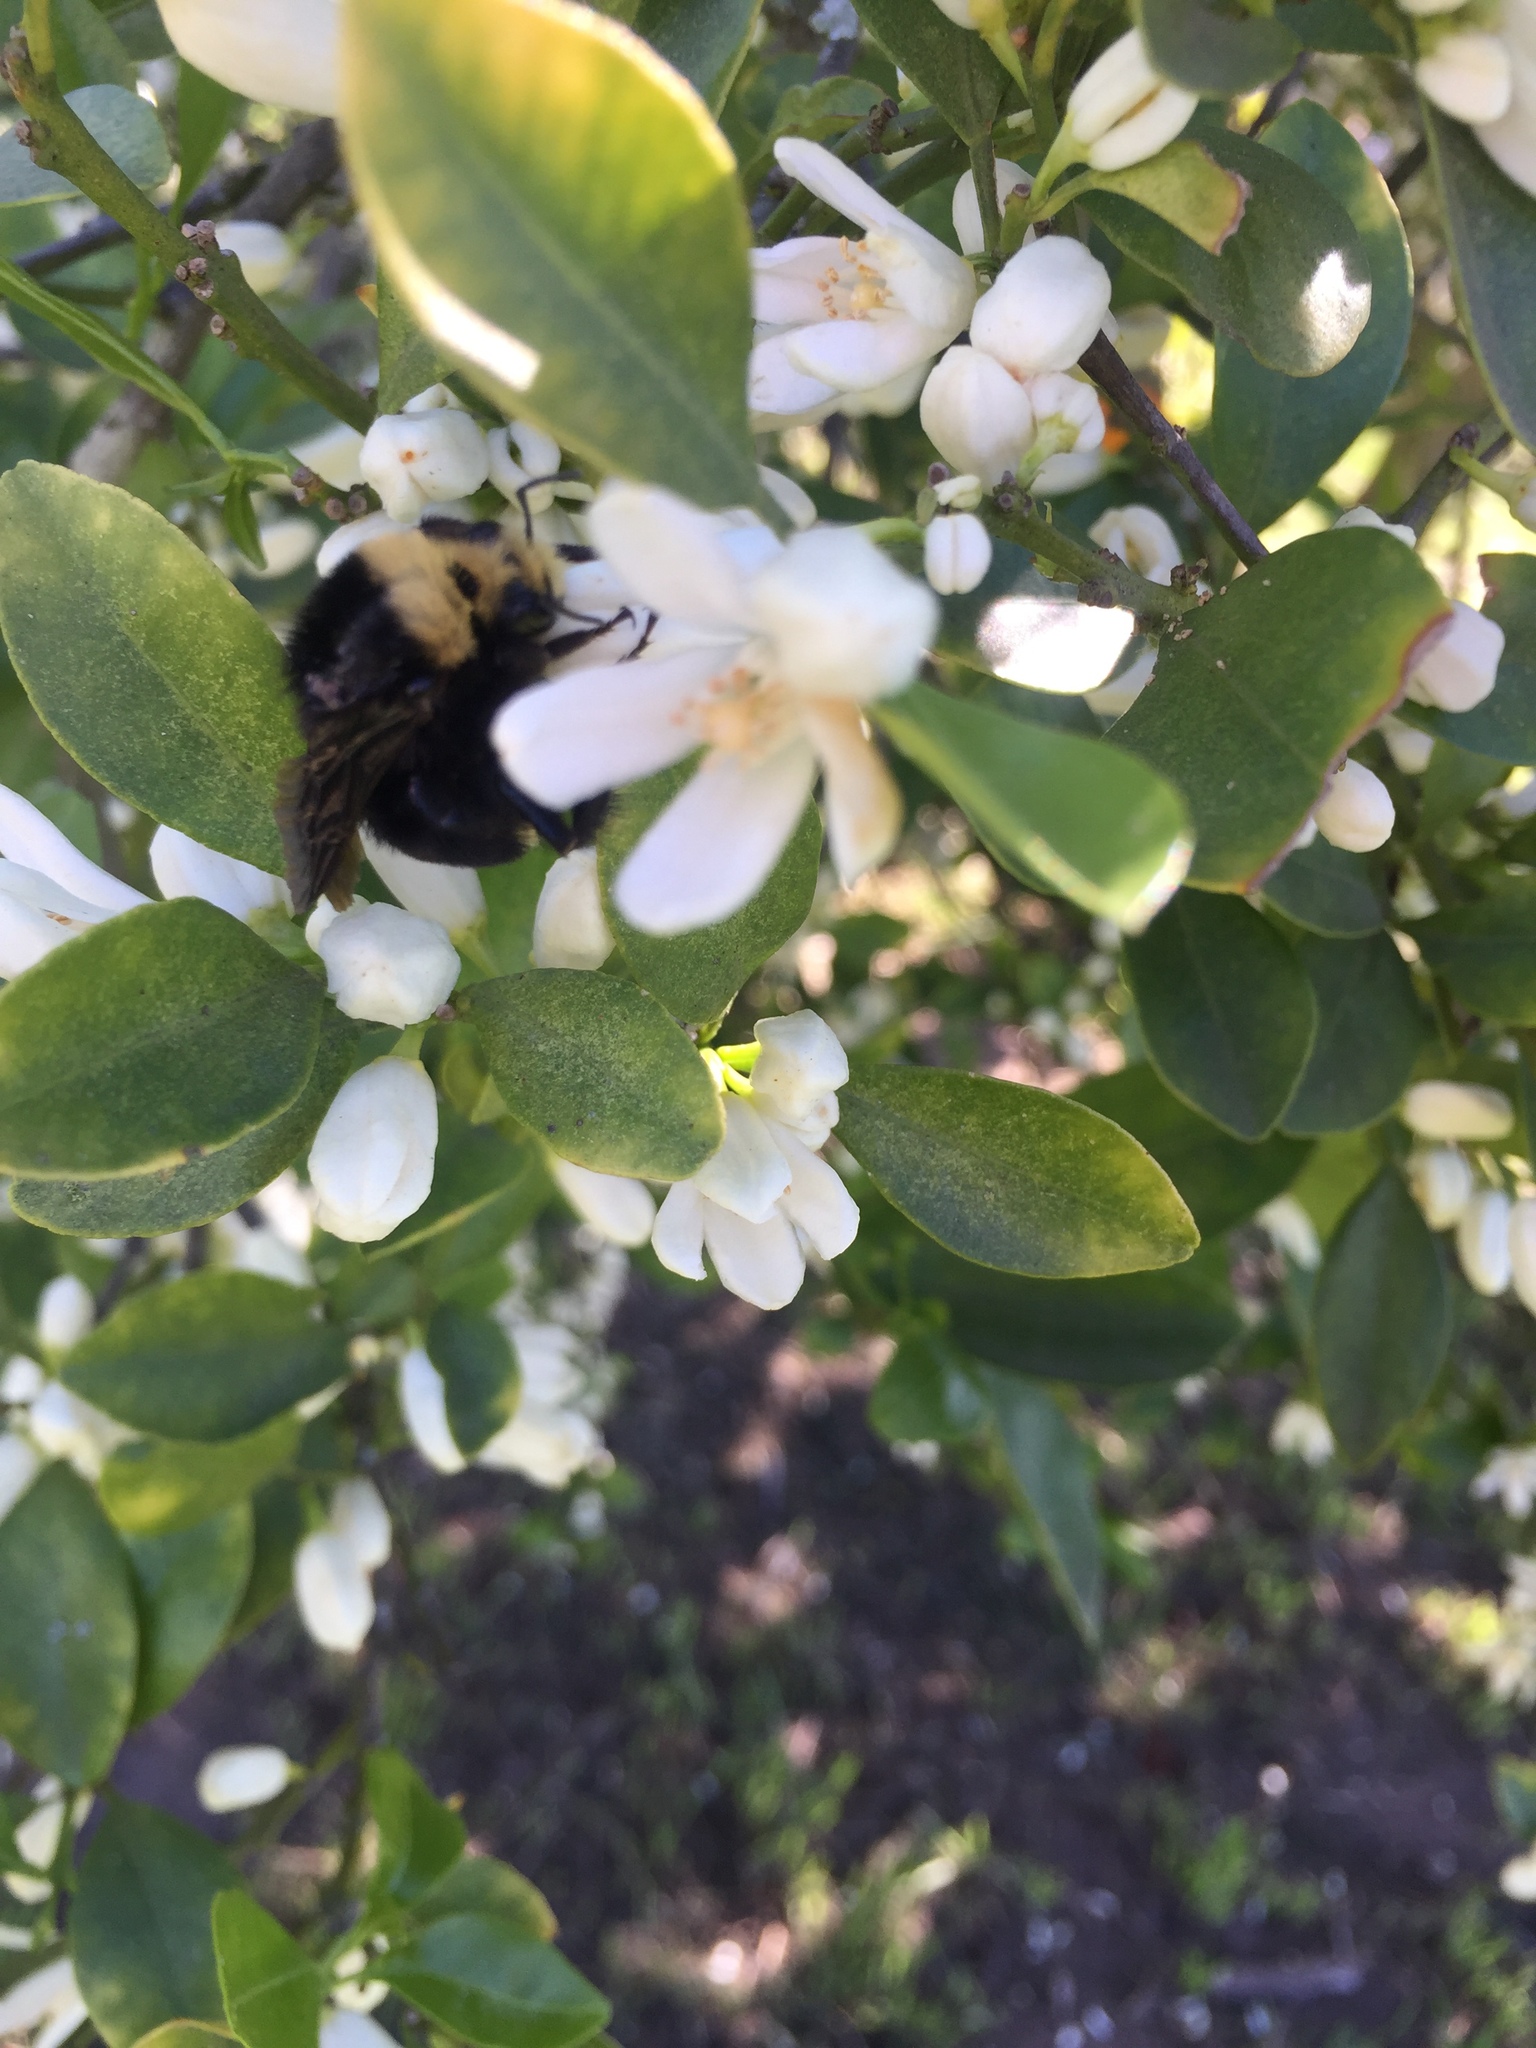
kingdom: Animalia
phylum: Arthropoda
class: Insecta
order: Hymenoptera
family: Apidae
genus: Bombus
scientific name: Bombus vosnesenskii
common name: Vosnesensky bumble bee
